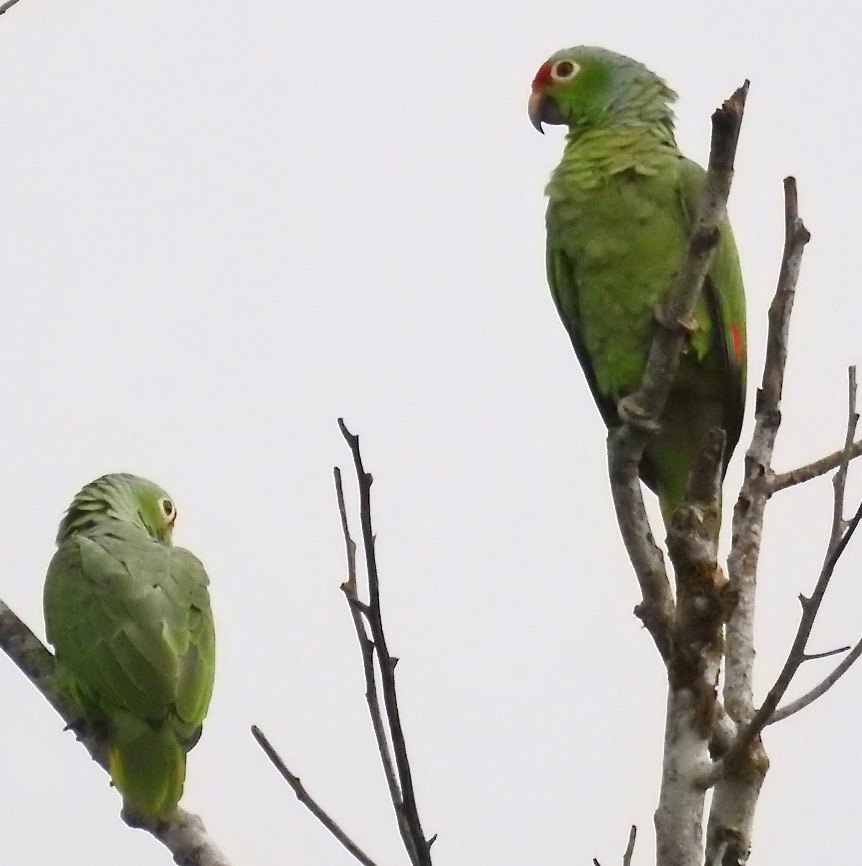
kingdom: Animalia
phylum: Chordata
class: Aves
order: Psittaciformes
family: Psittacidae
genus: Amazona
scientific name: Amazona autumnalis
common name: Red-lored amazon
